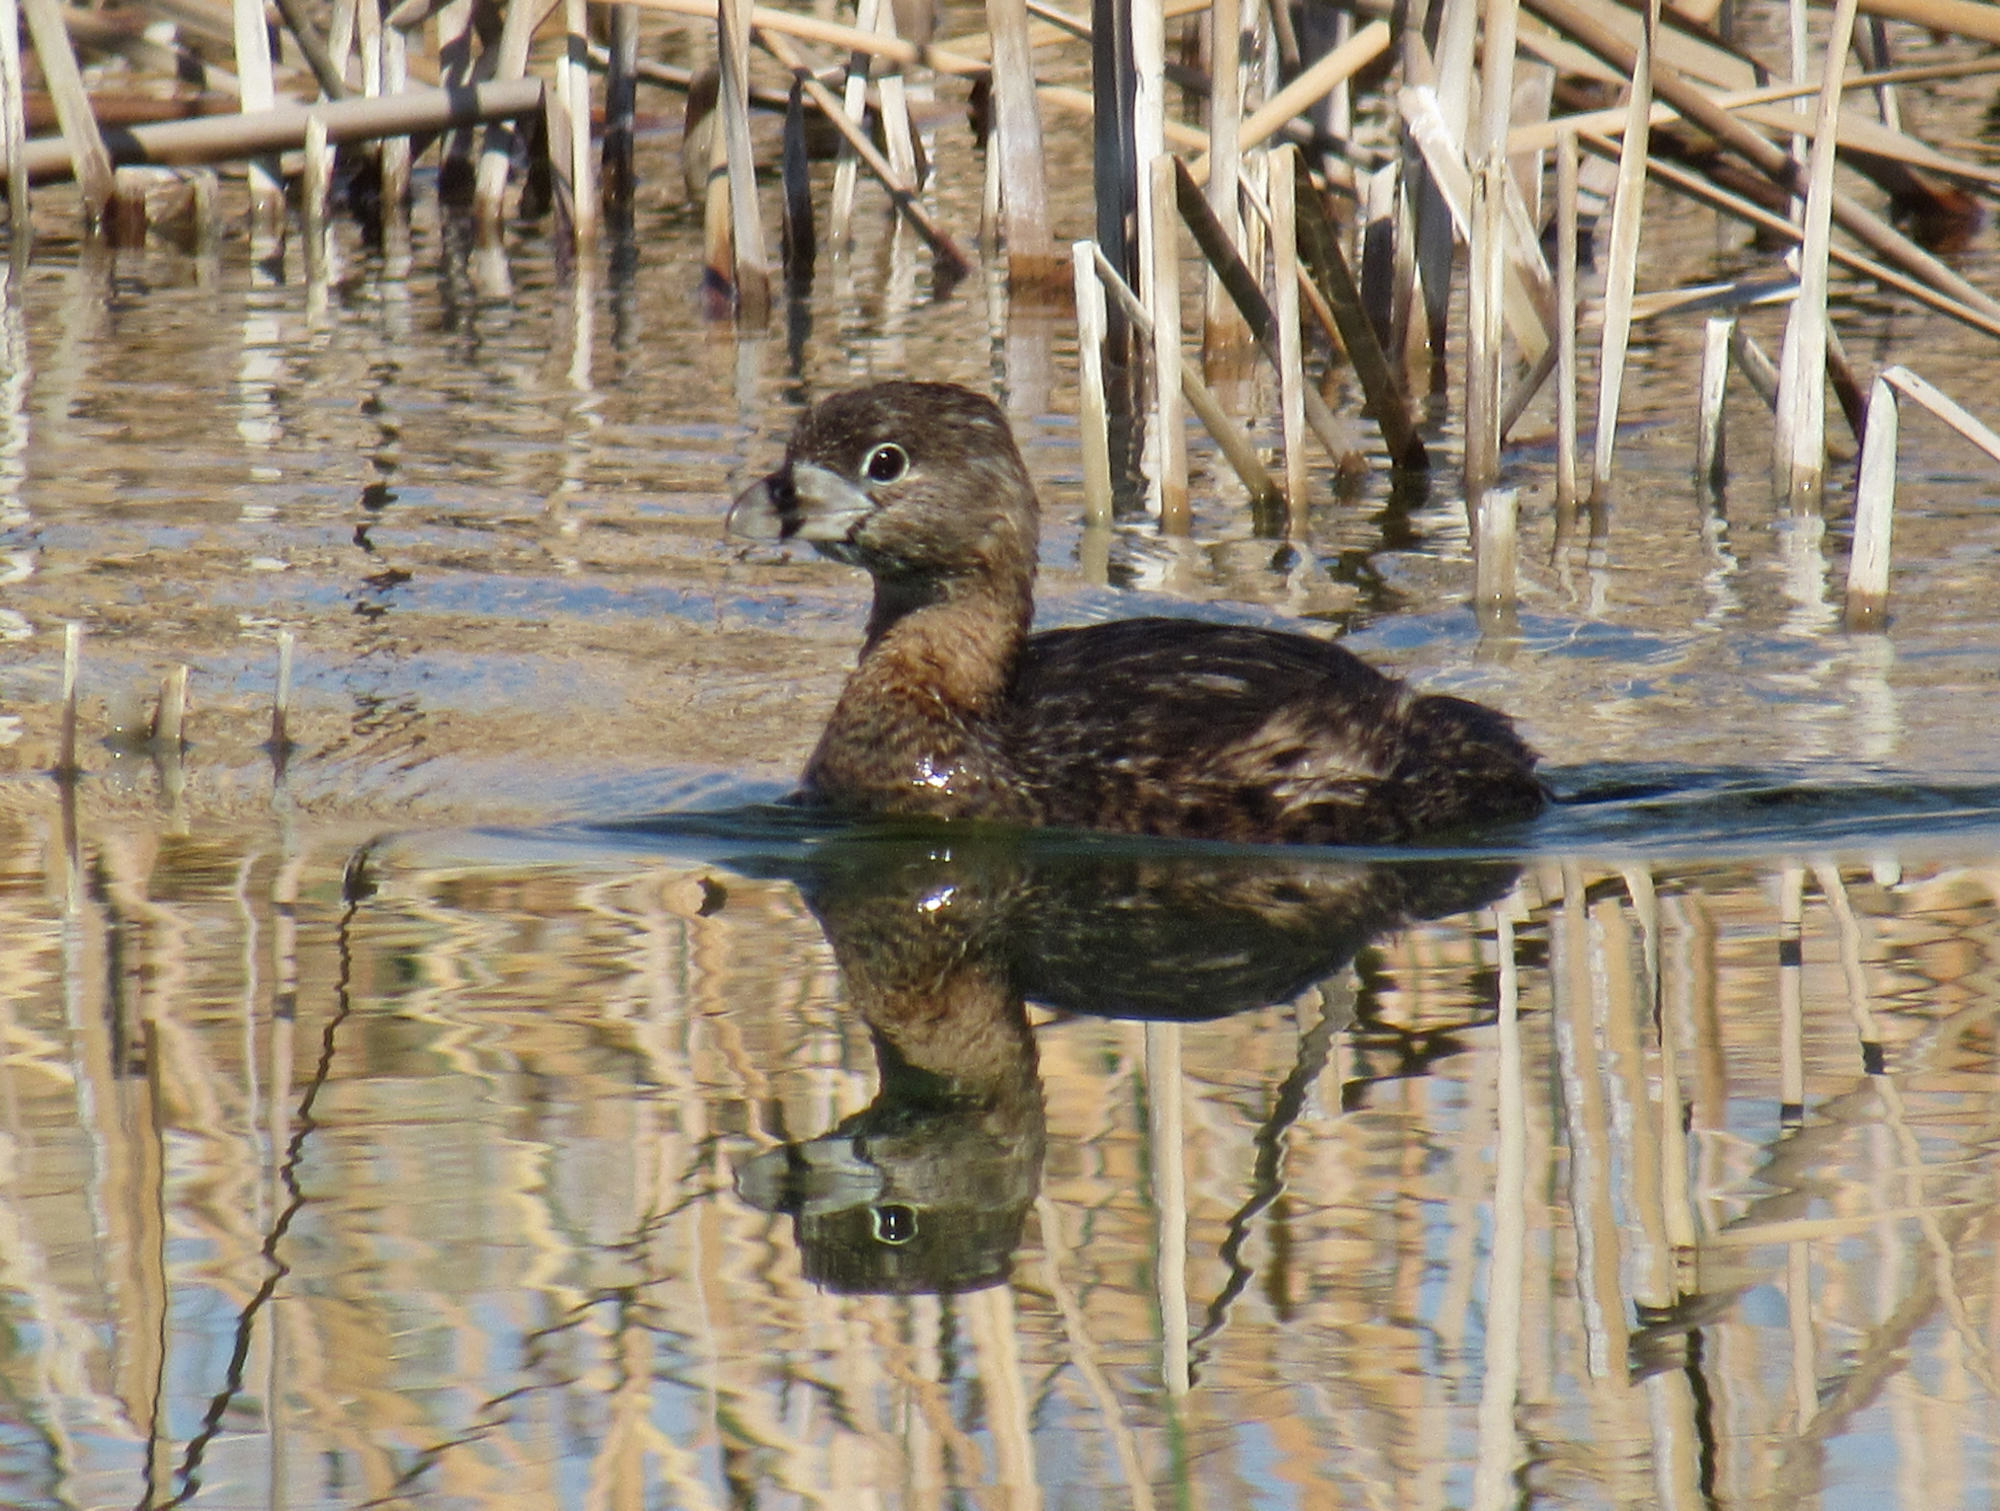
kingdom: Animalia
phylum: Chordata
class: Aves
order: Podicipediformes
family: Podicipedidae
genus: Podilymbus
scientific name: Podilymbus podiceps
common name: Pied-billed grebe
